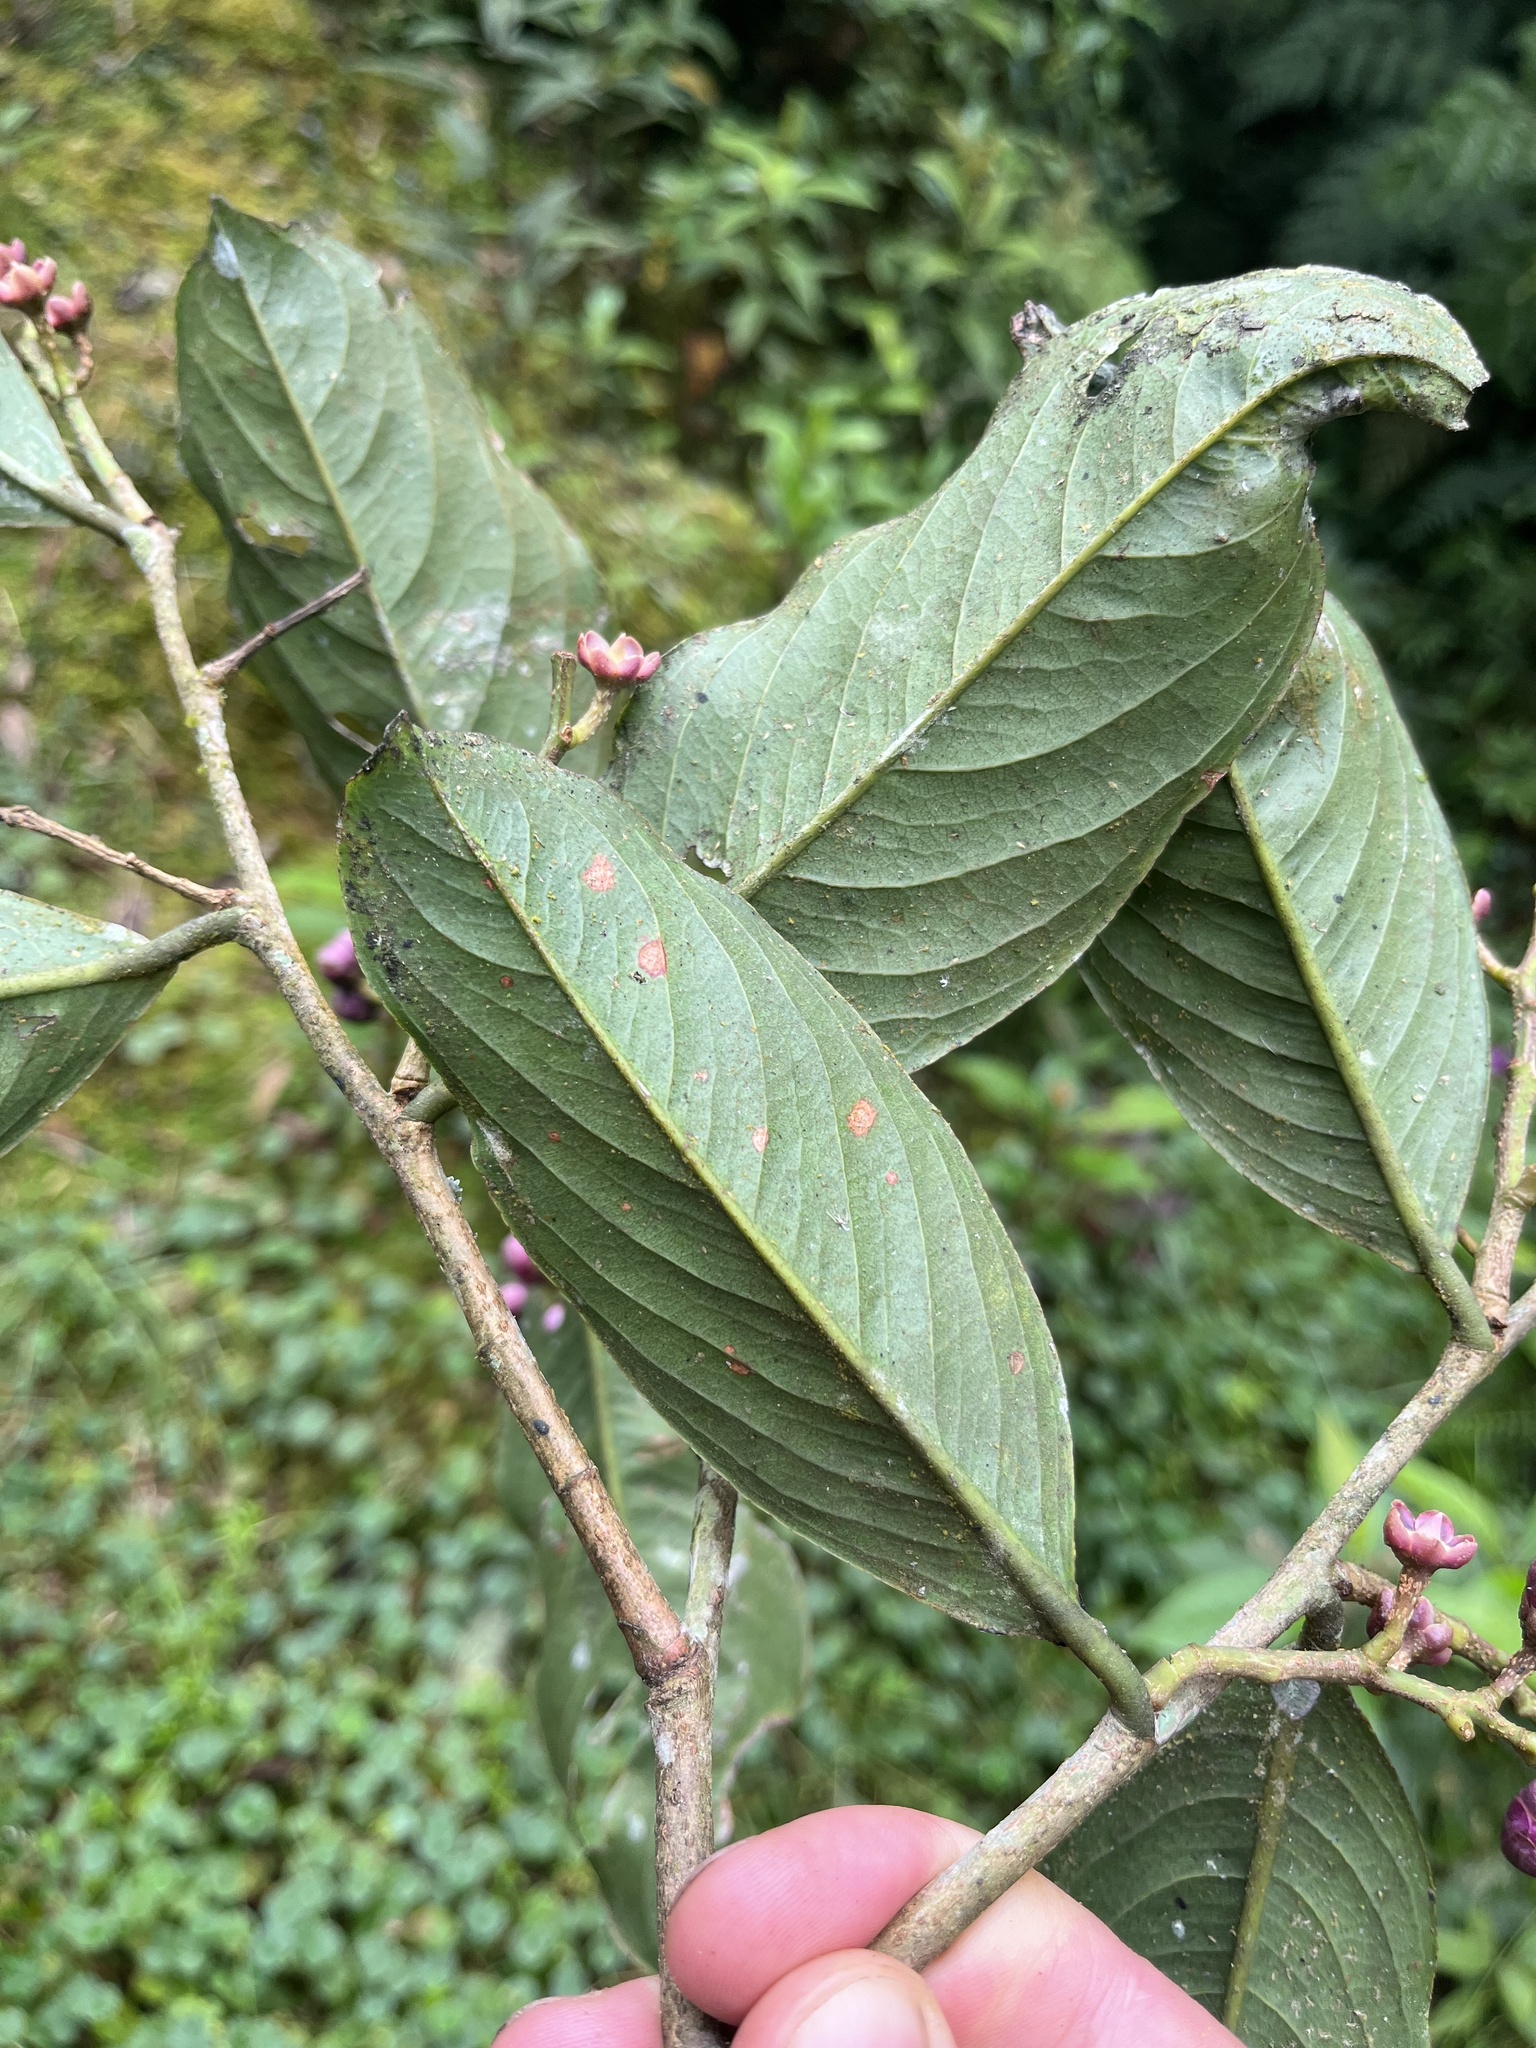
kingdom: Plantae
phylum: Tracheophyta
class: Magnoliopsida
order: Ericales
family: Lecythidaceae
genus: Eschweilera
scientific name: Eschweilera bogotensis
